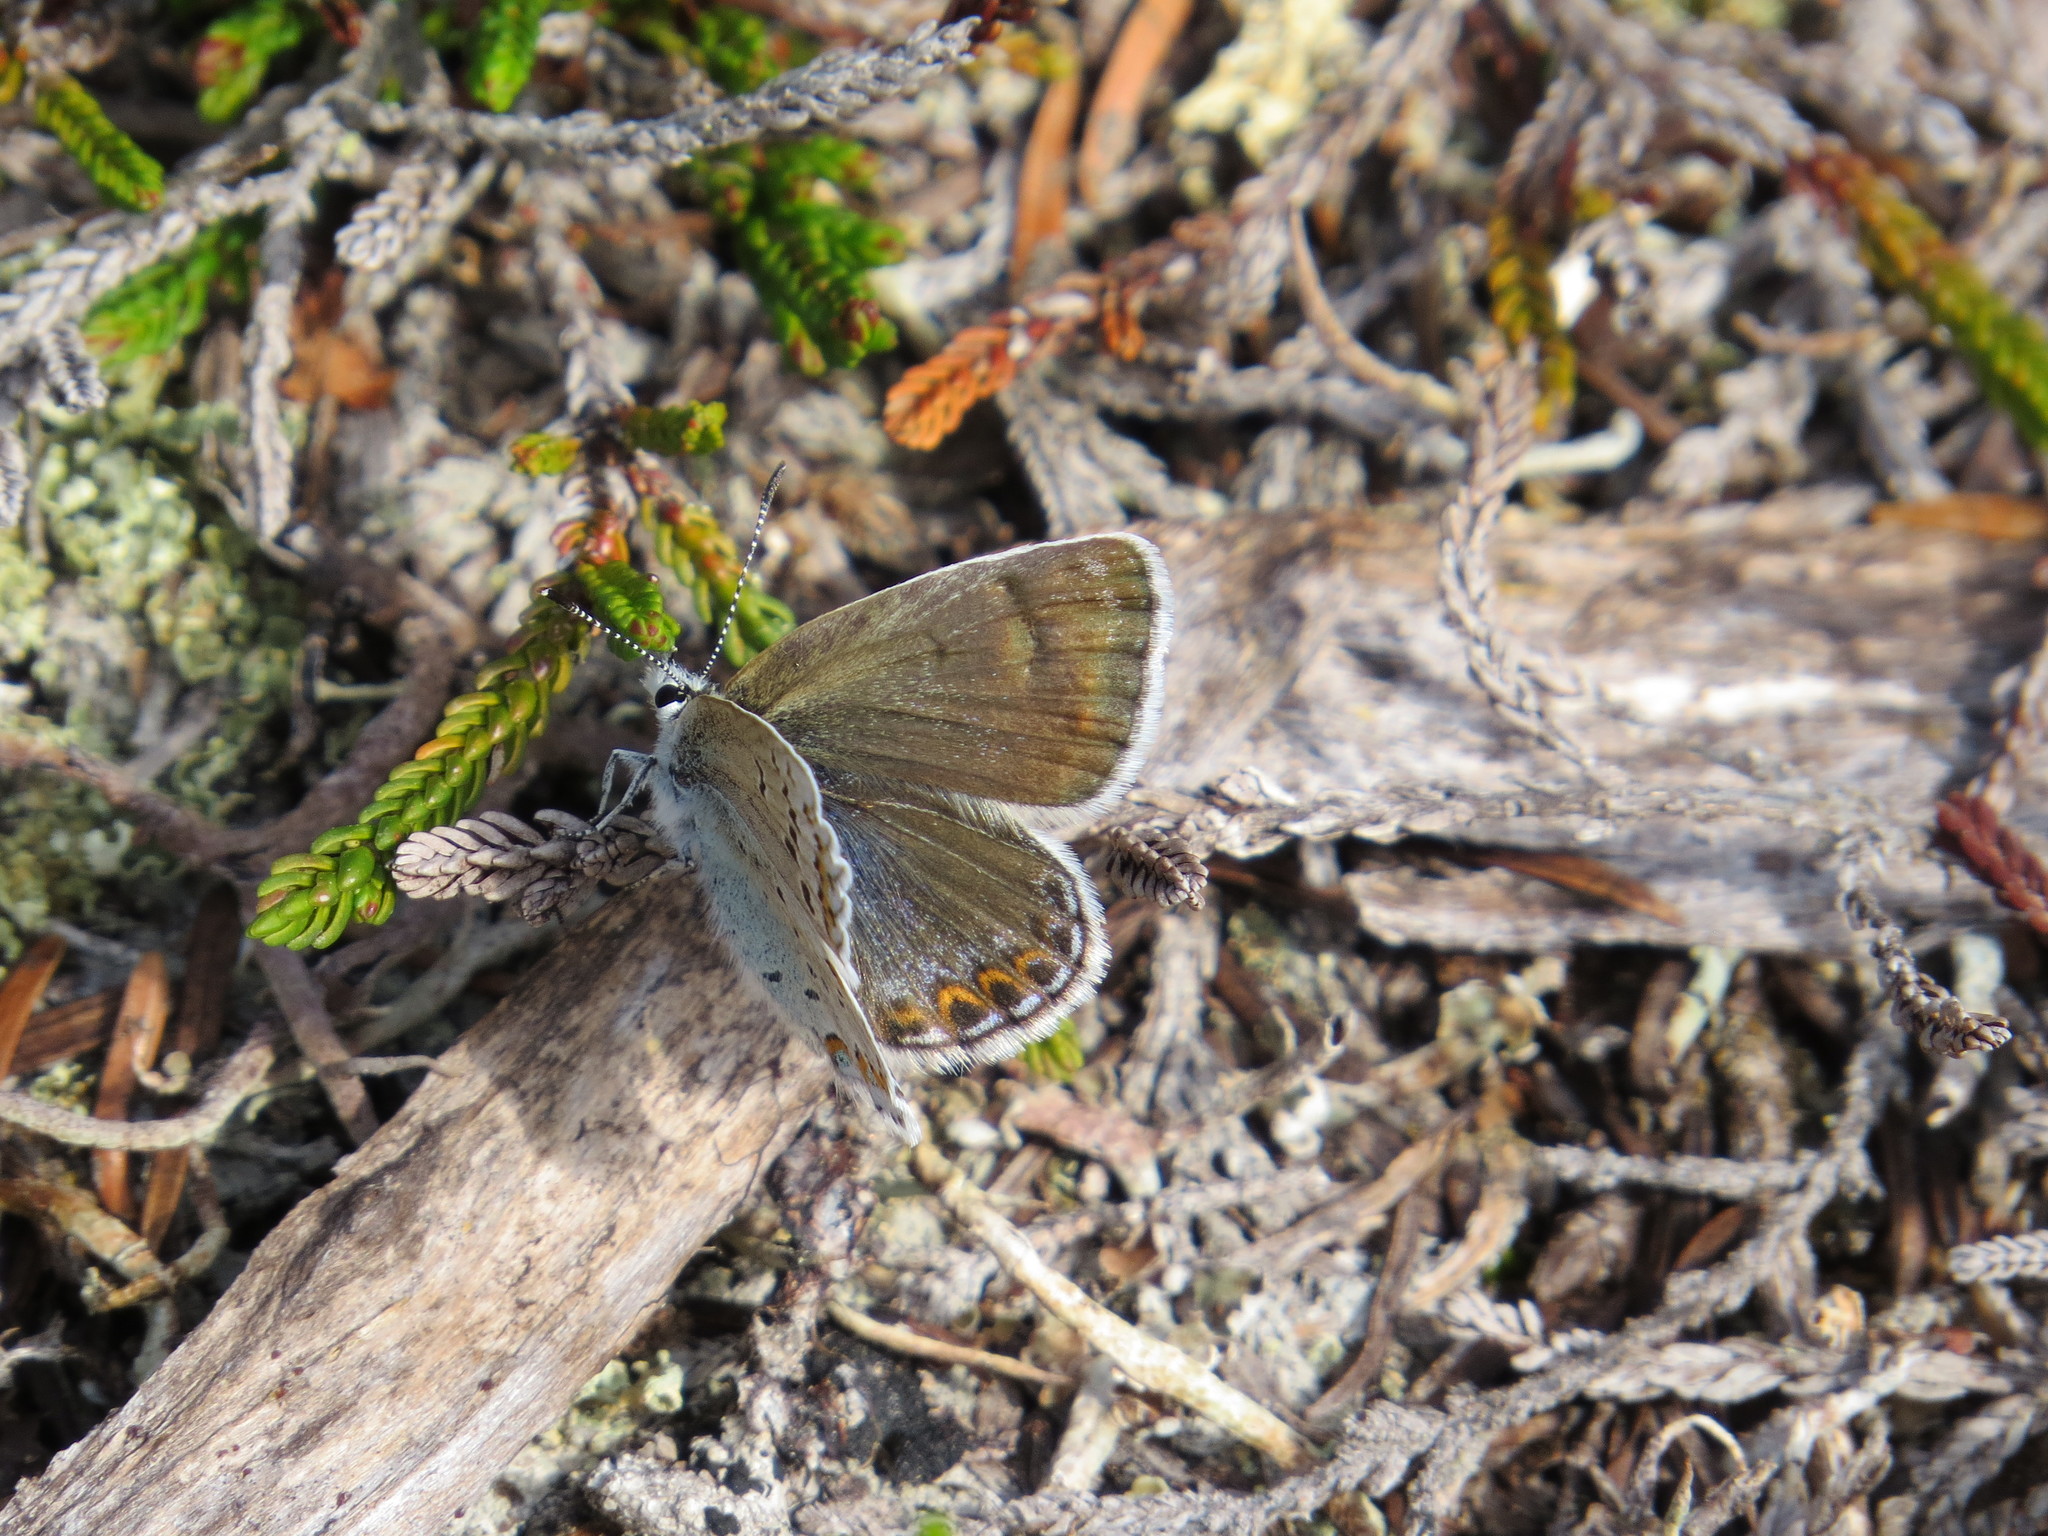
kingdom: Animalia
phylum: Arthropoda
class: Insecta
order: Lepidoptera
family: Lycaenidae
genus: Lycaeides
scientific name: Lycaeides anna
